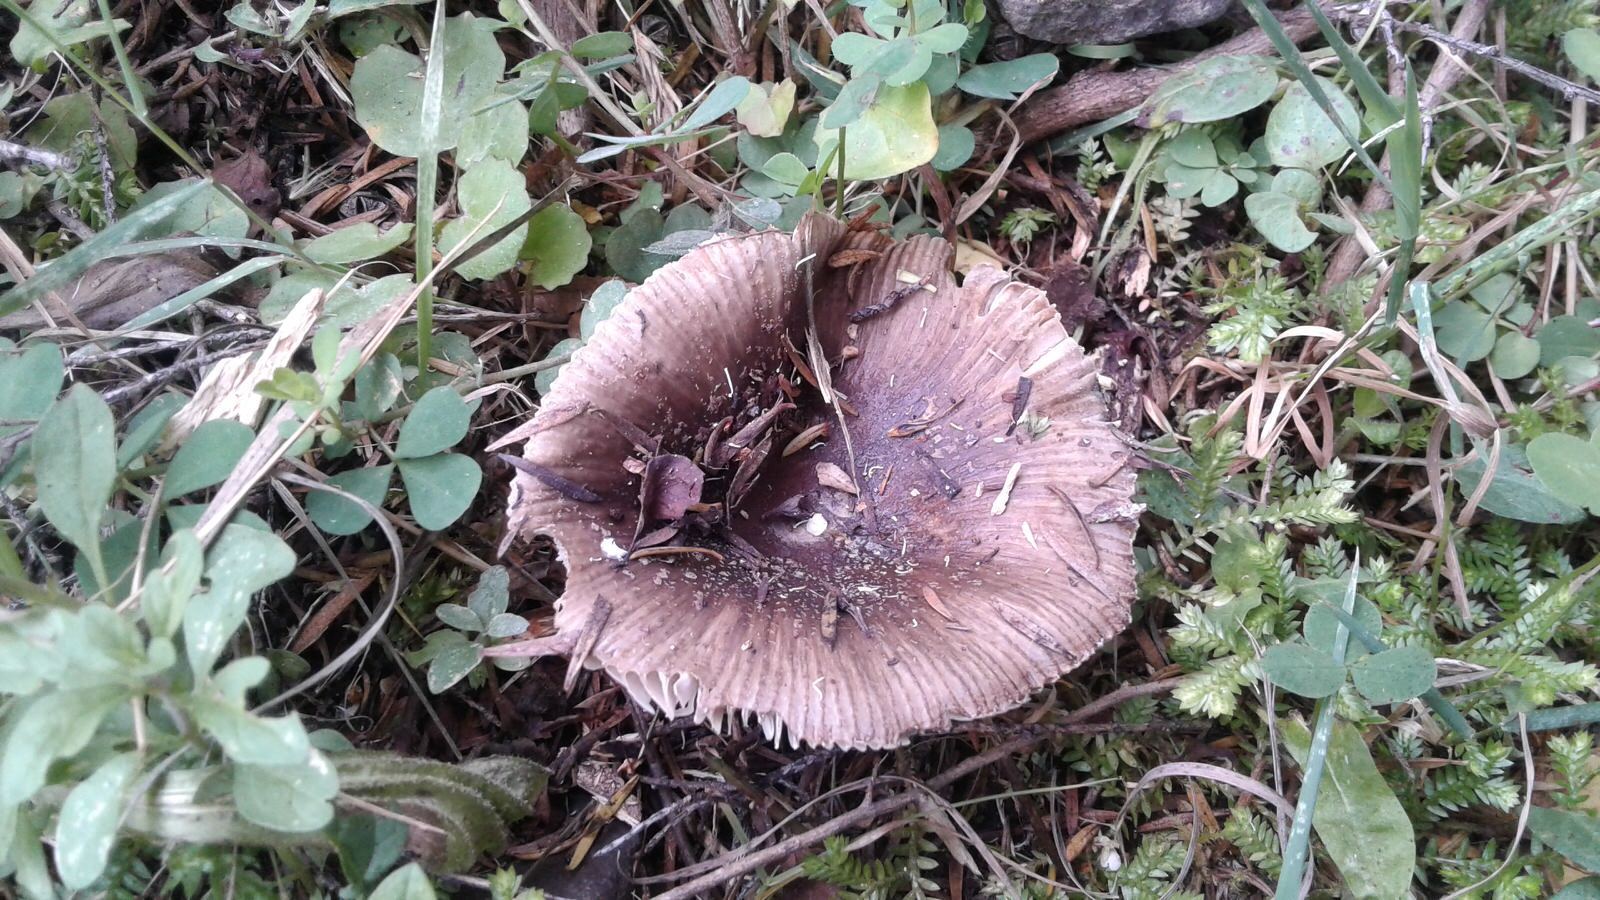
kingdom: Fungi
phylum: Basidiomycota
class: Agaricomycetes
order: Russulales
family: Russulaceae
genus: Russula
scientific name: Russula griseoviridis
